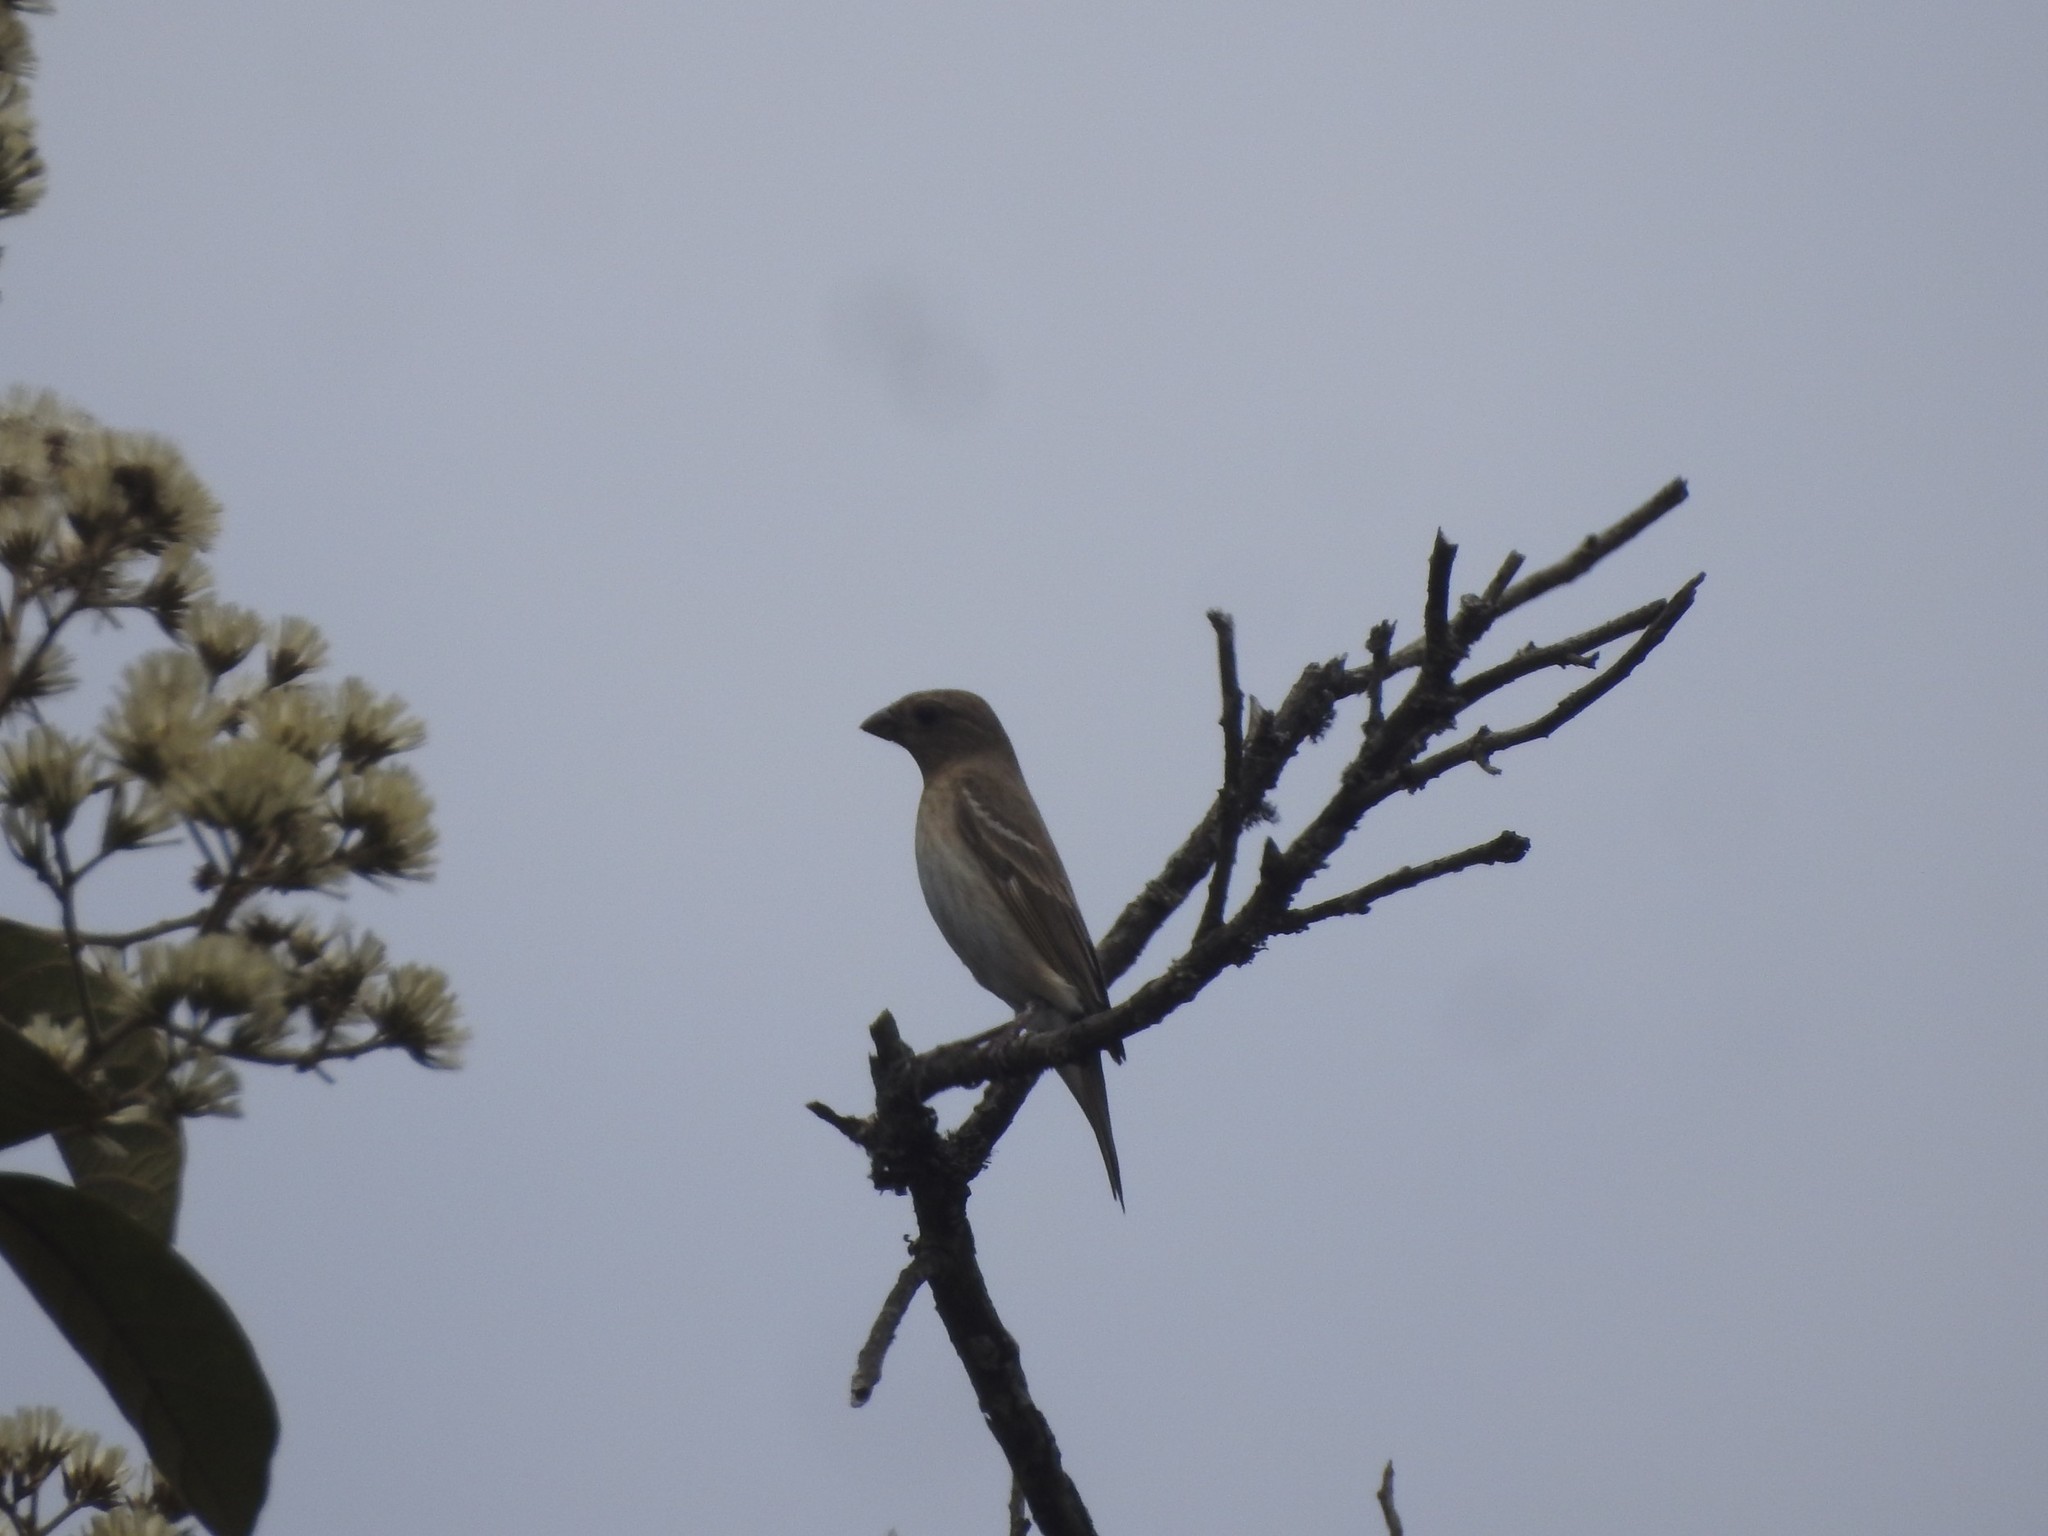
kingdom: Animalia
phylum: Chordata
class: Aves
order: Passeriformes
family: Fringillidae
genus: Carpodacus
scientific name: Carpodacus erythrinus
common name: Common rosefinch
